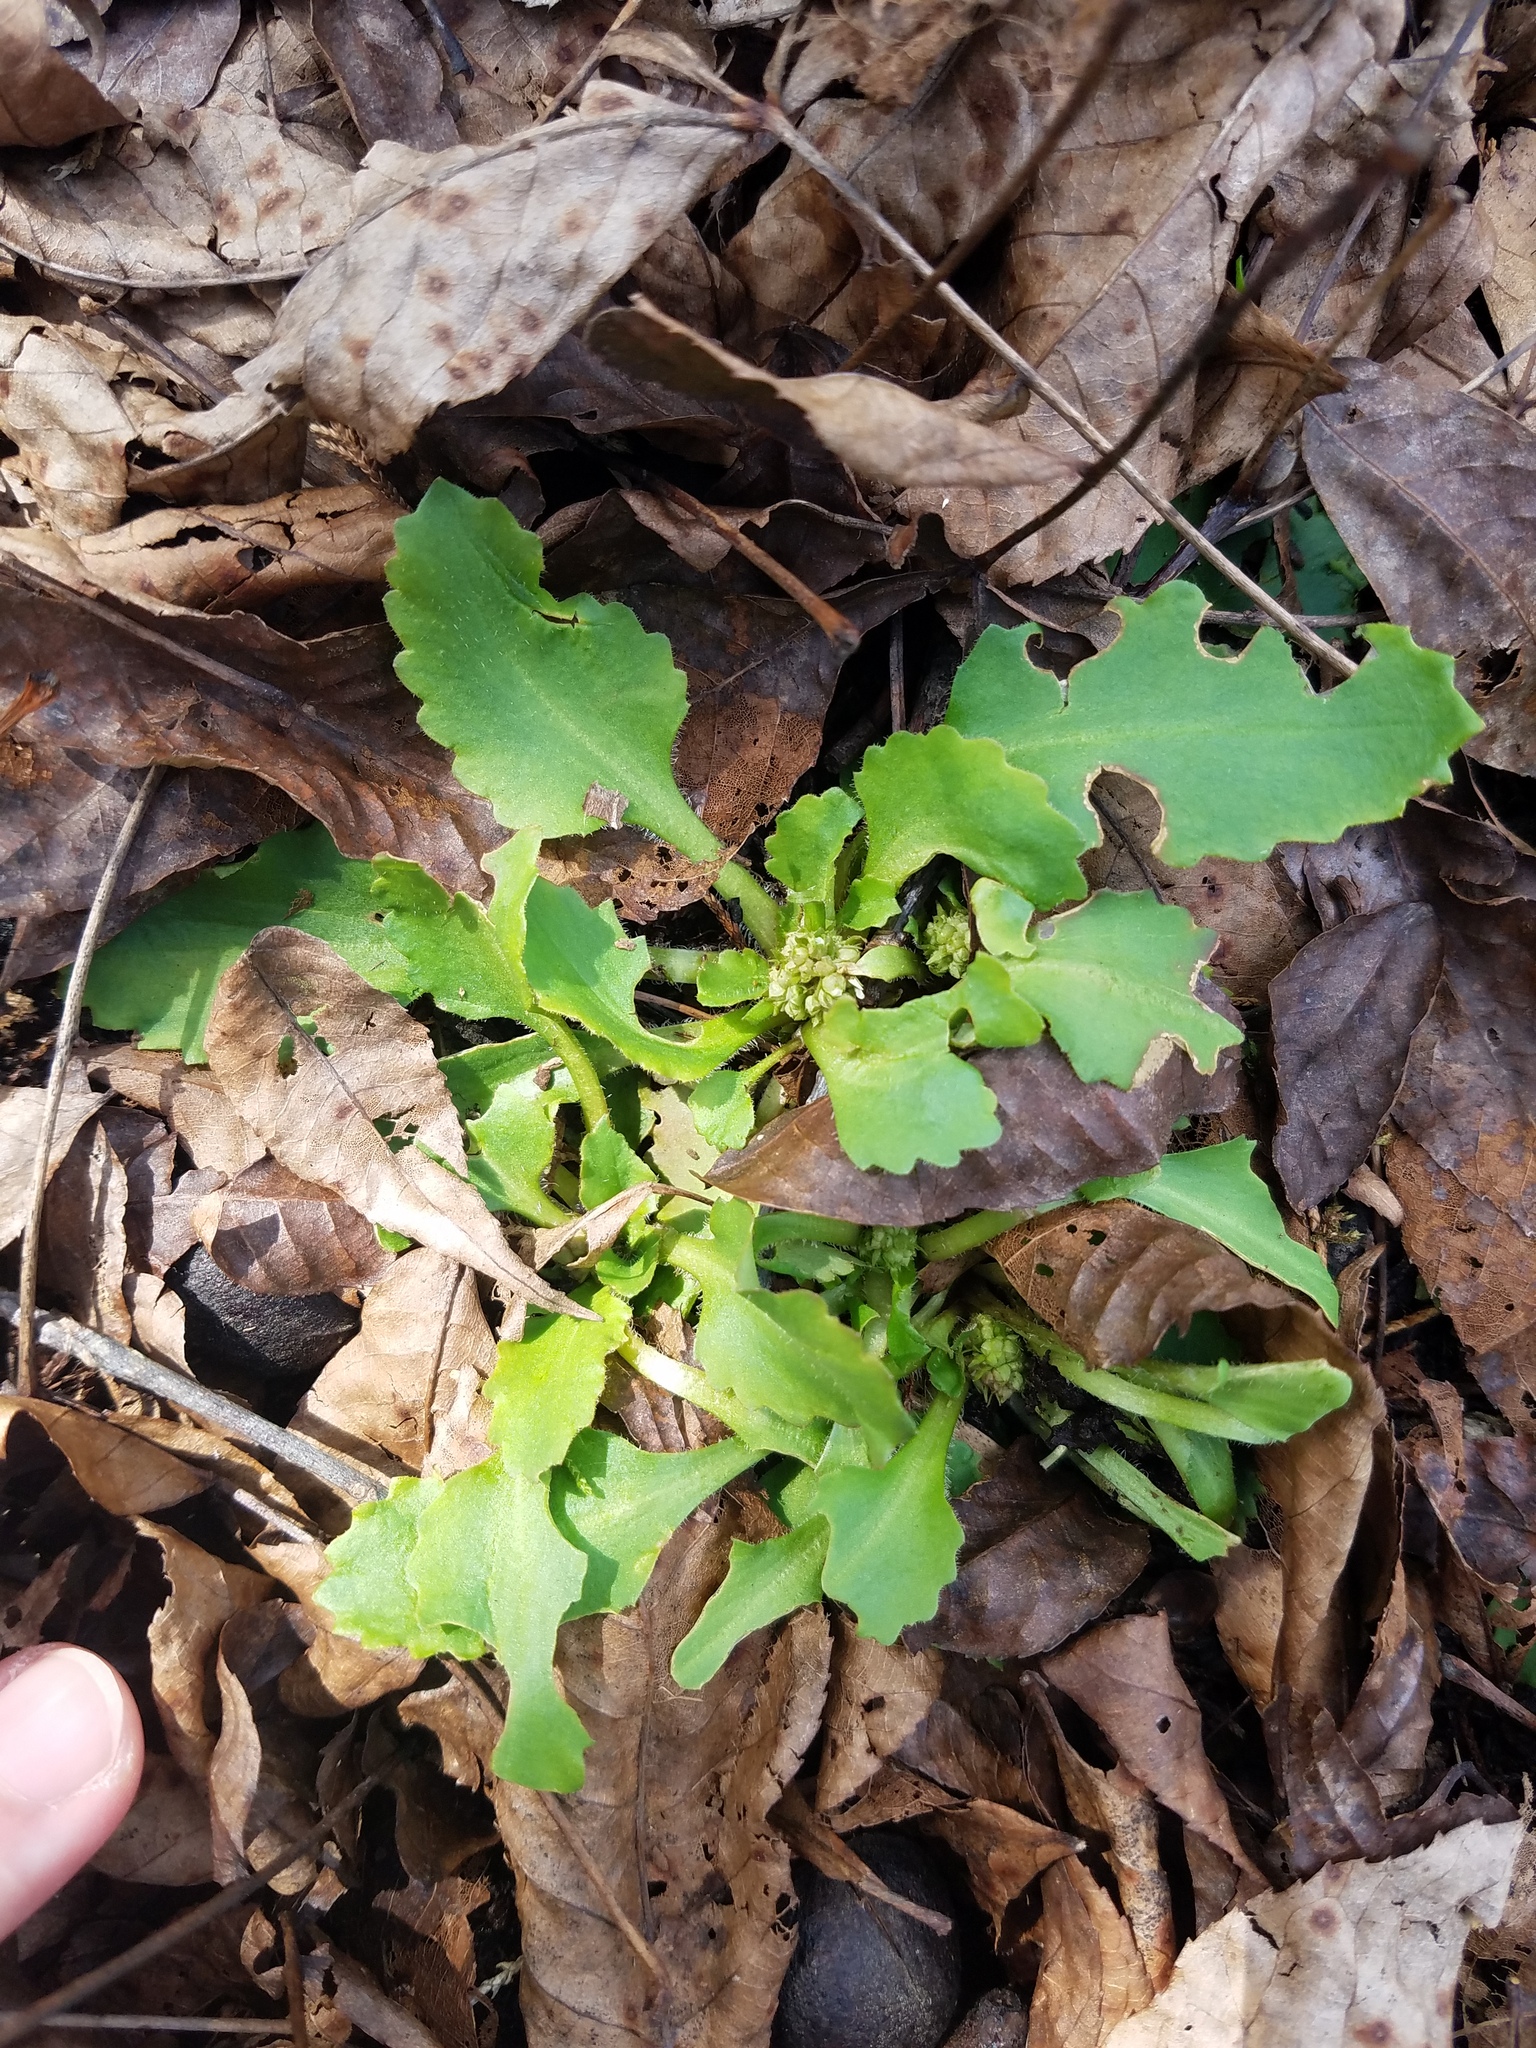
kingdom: Plantae
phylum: Tracheophyta
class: Magnoliopsida
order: Saxifragales
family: Saxifragaceae
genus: Micranthes
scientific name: Micranthes virginiensis
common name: Early saxifrage
